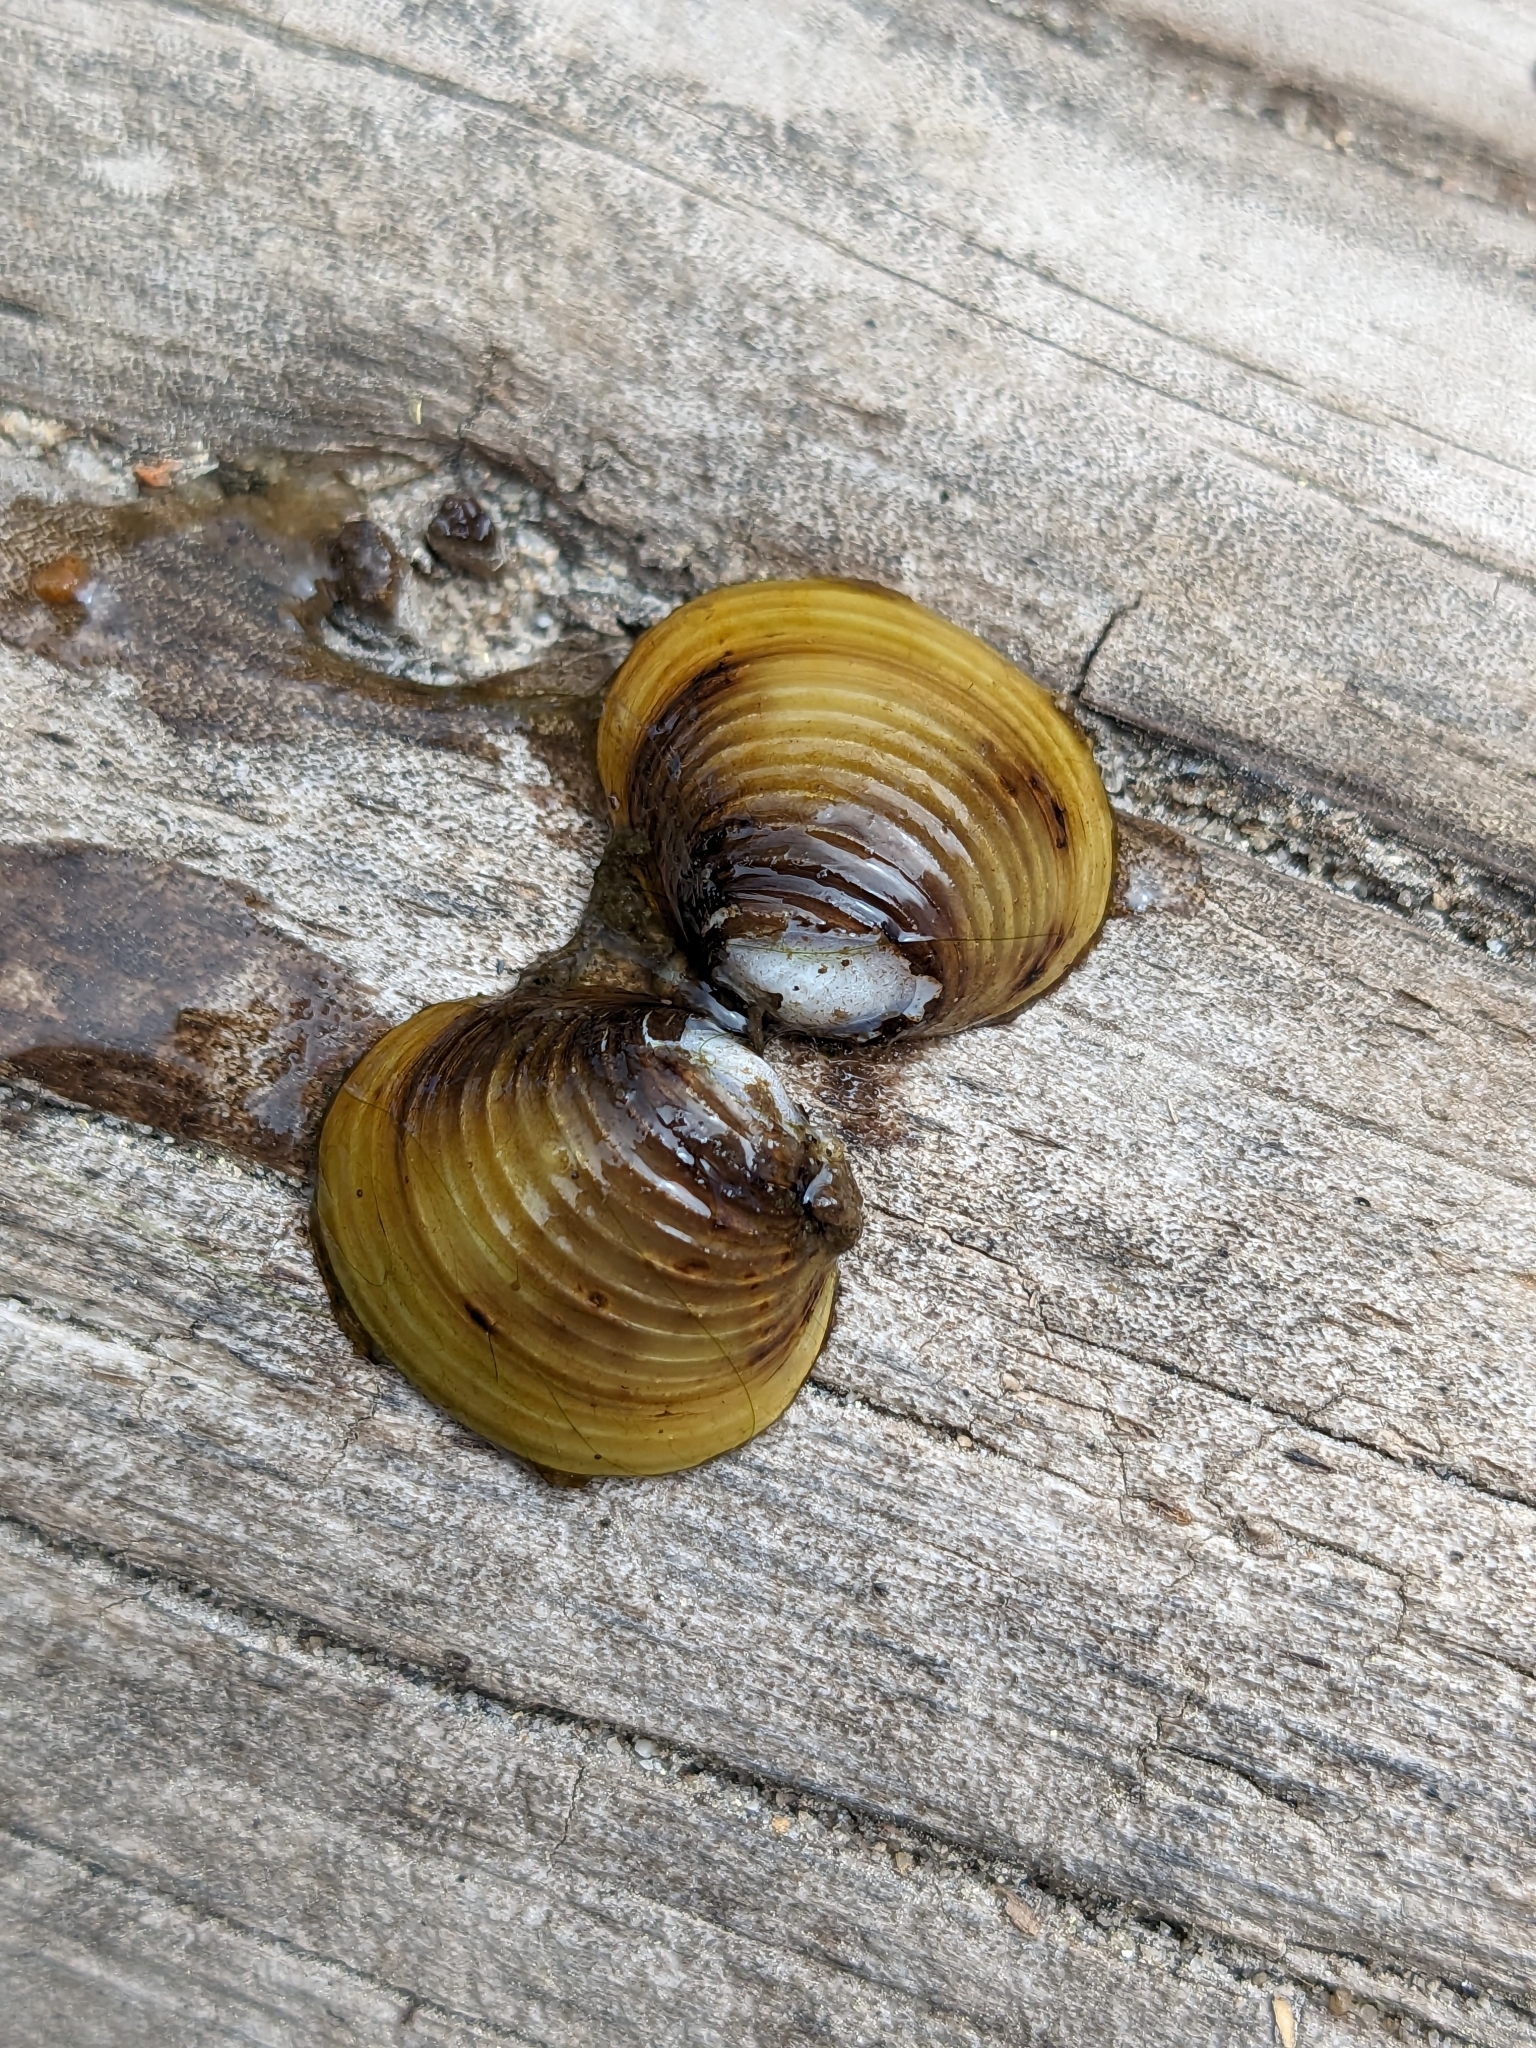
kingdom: Animalia
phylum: Mollusca
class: Bivalvia
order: Venerida
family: Cyrenidae
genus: Corbicula
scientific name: Corbicula fluminea
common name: Asian clam
